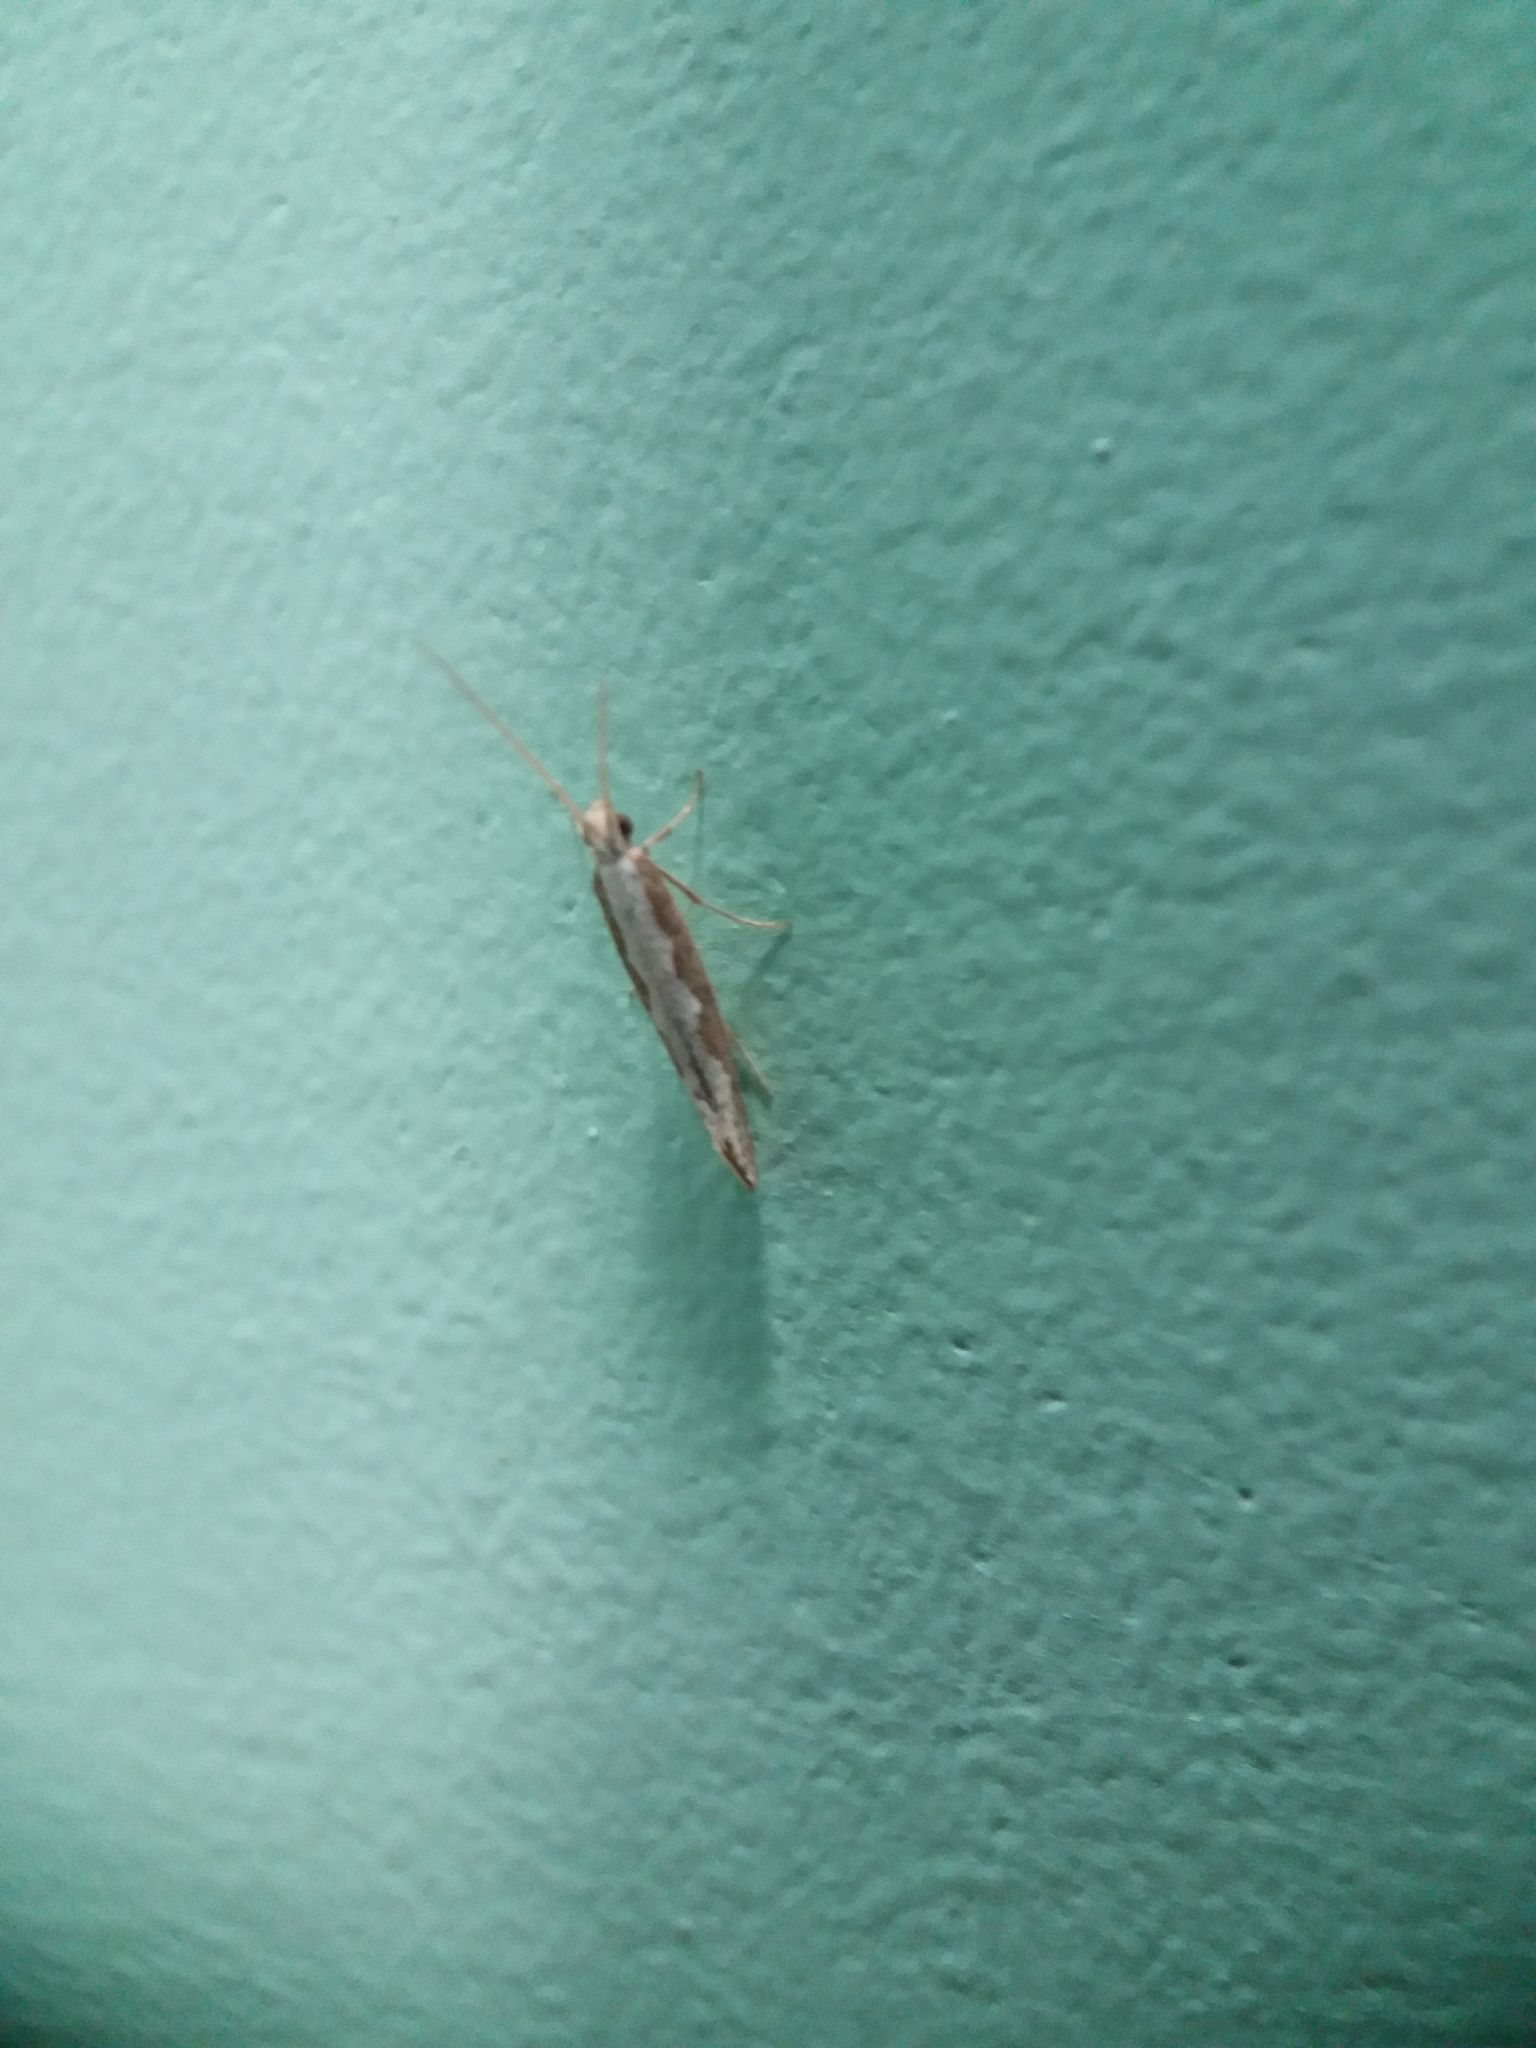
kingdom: Animalia
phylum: Arthropoda
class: Insecta
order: Lepidoptera
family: Plutellidae
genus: Plutella
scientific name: Plutella xylostella
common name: Diamond-back moth
